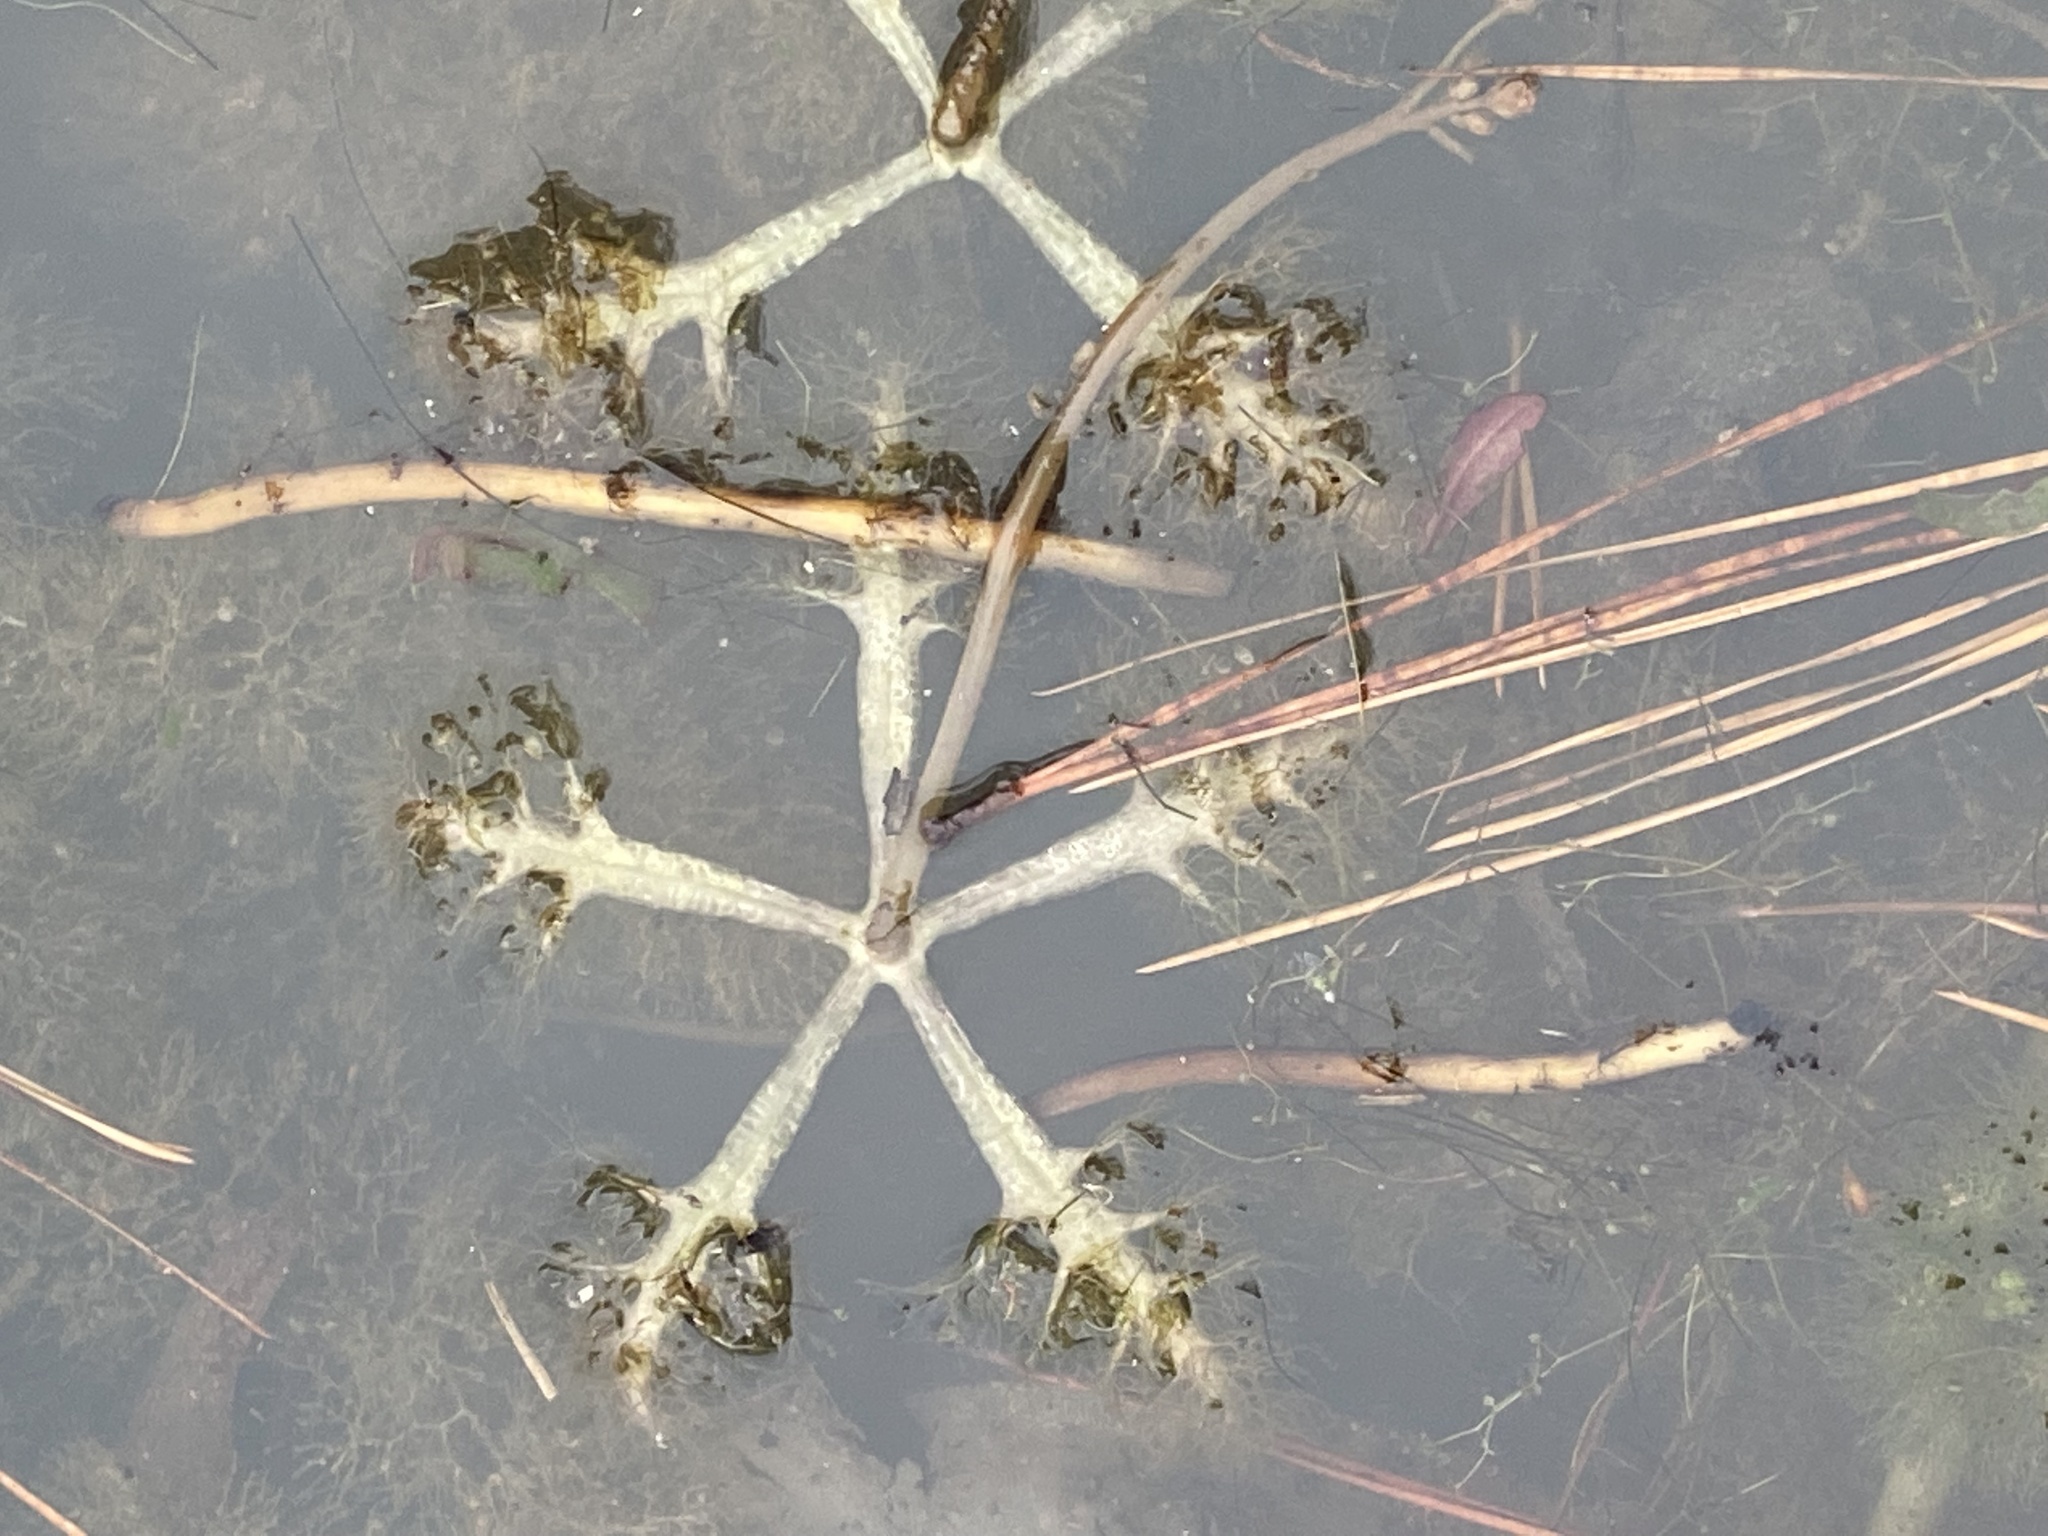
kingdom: Plantae
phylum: Tracheophyta
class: Magnoliopsida
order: Lamiales
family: Lentibulariaceae
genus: Utricularia
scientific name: Utricularia inflata
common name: Floating bladderwort
